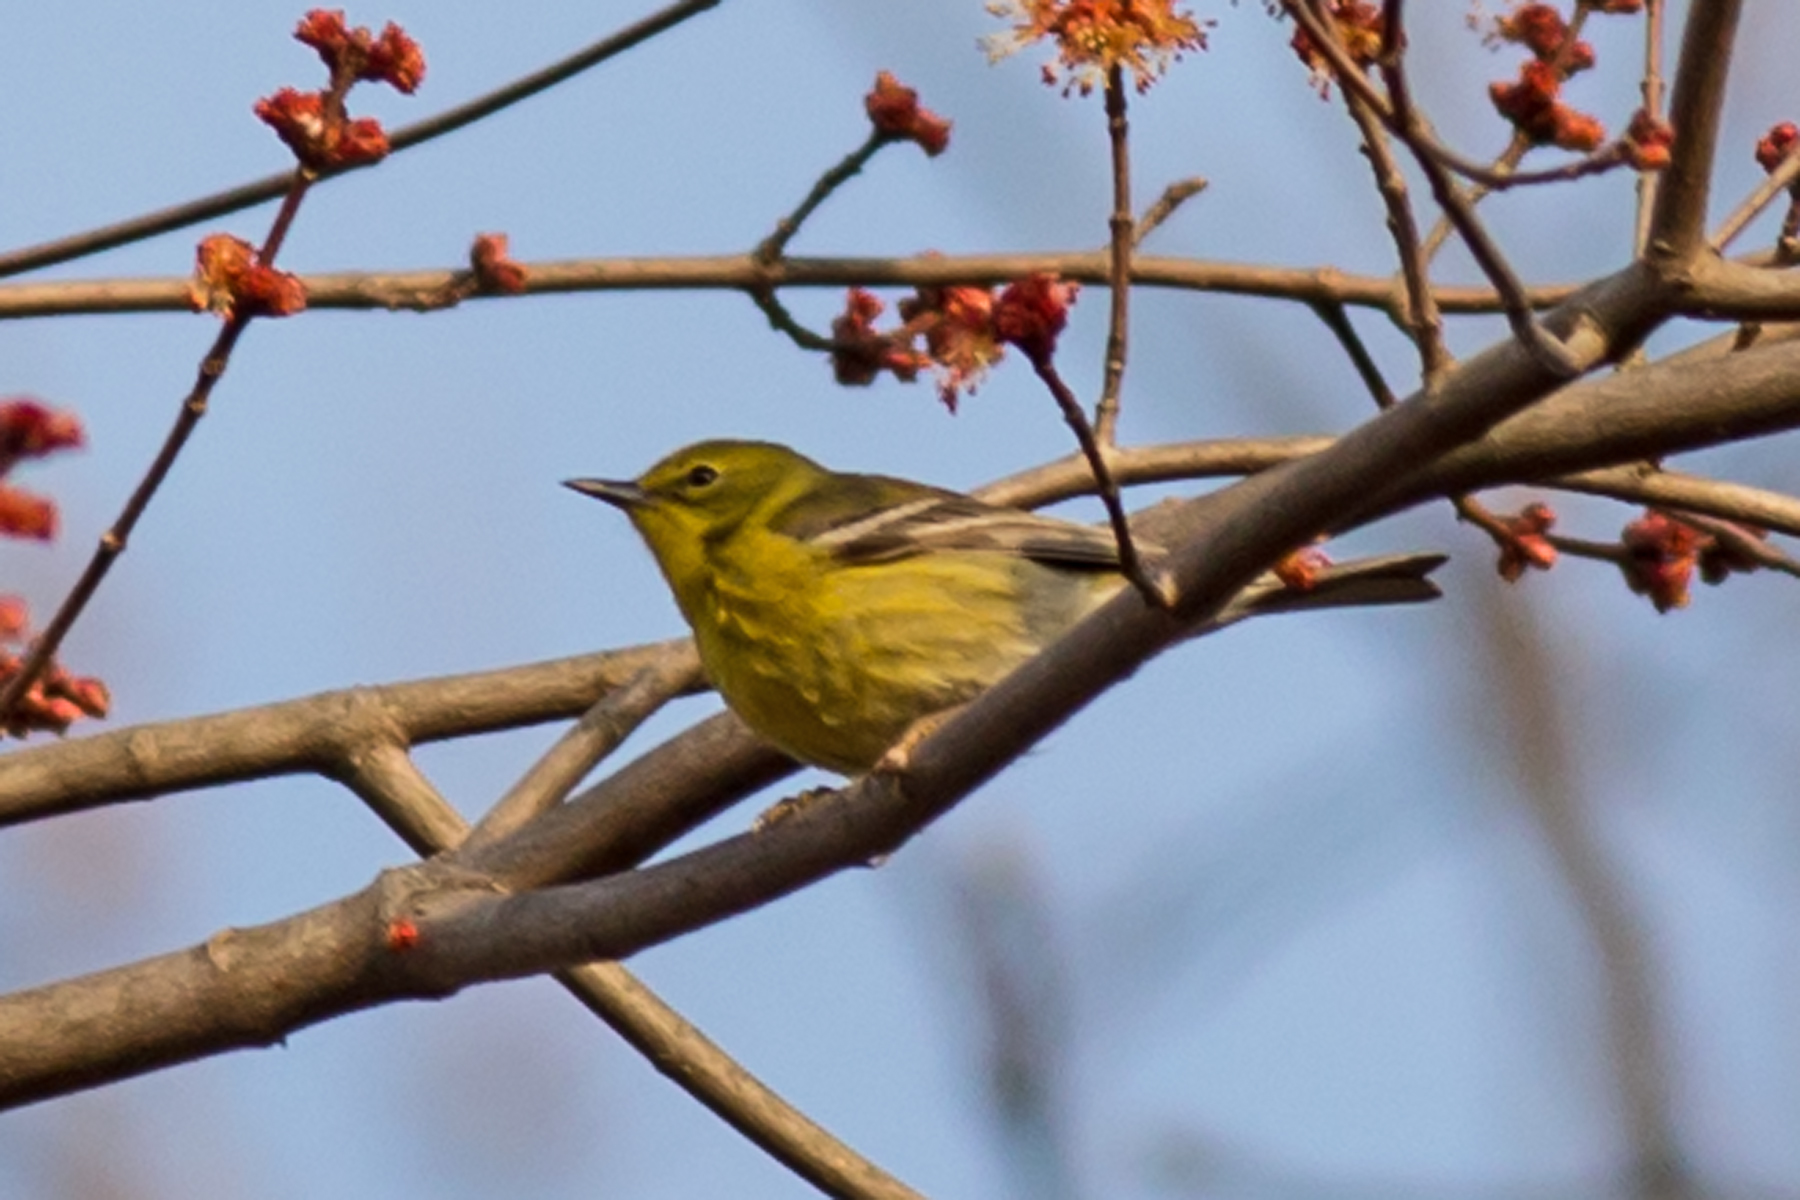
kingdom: Animalia
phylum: Chordata
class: Aves
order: Passeriformes
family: Parulidae
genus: Setophaga
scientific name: Setophaga pinus
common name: Pine warbler
